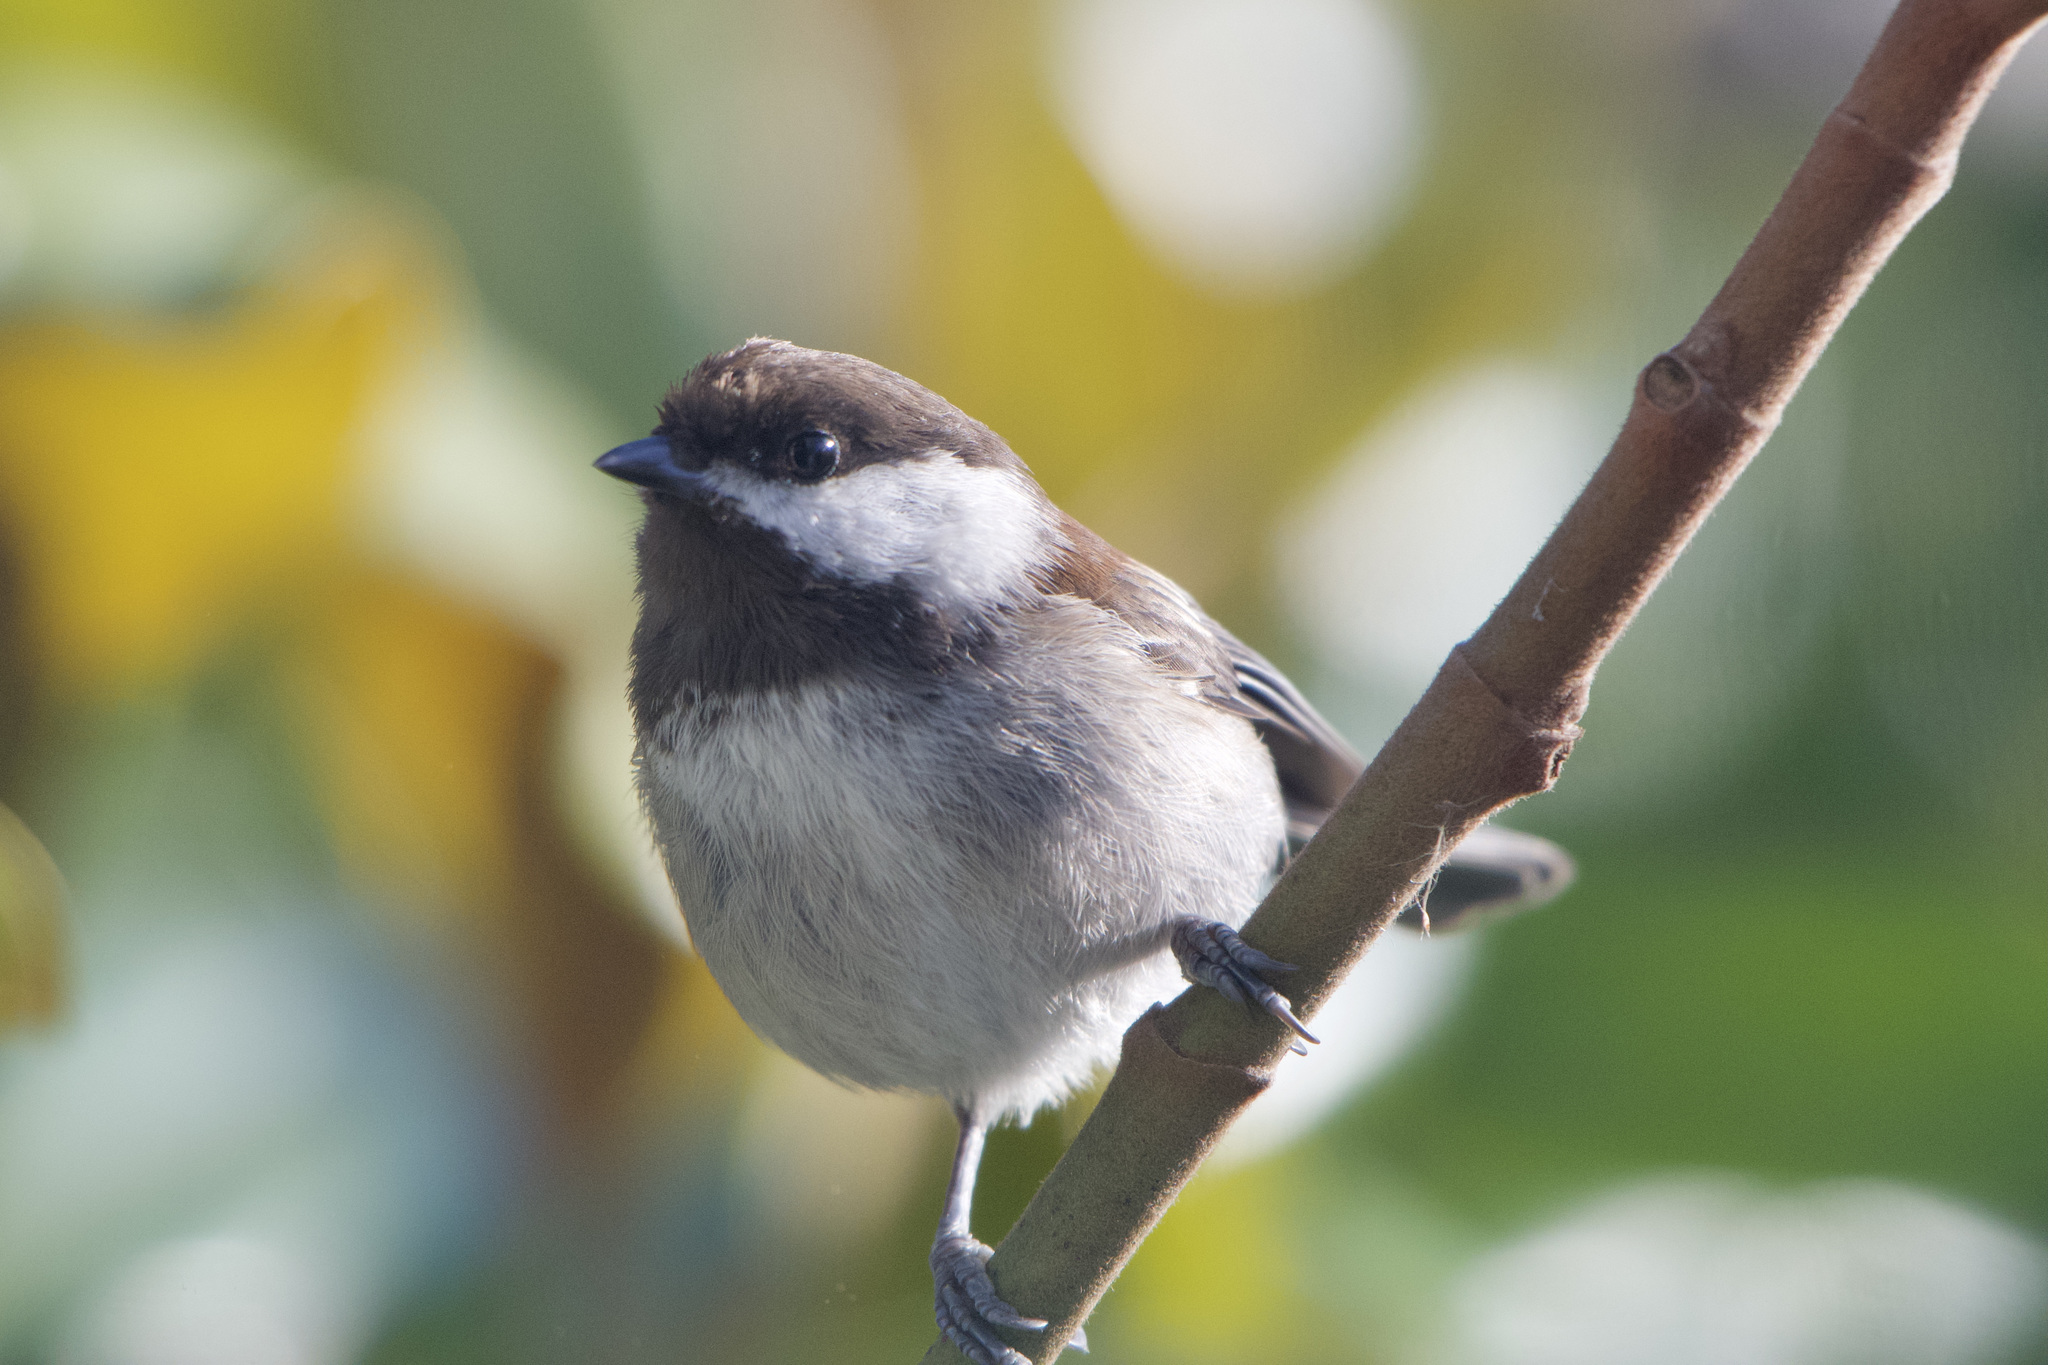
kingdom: Animalia
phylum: Chordata
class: Aves
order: Passeriformes
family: Paridae
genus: Poecile
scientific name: Poecile rufescens
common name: Chestnut-backed chickadee
